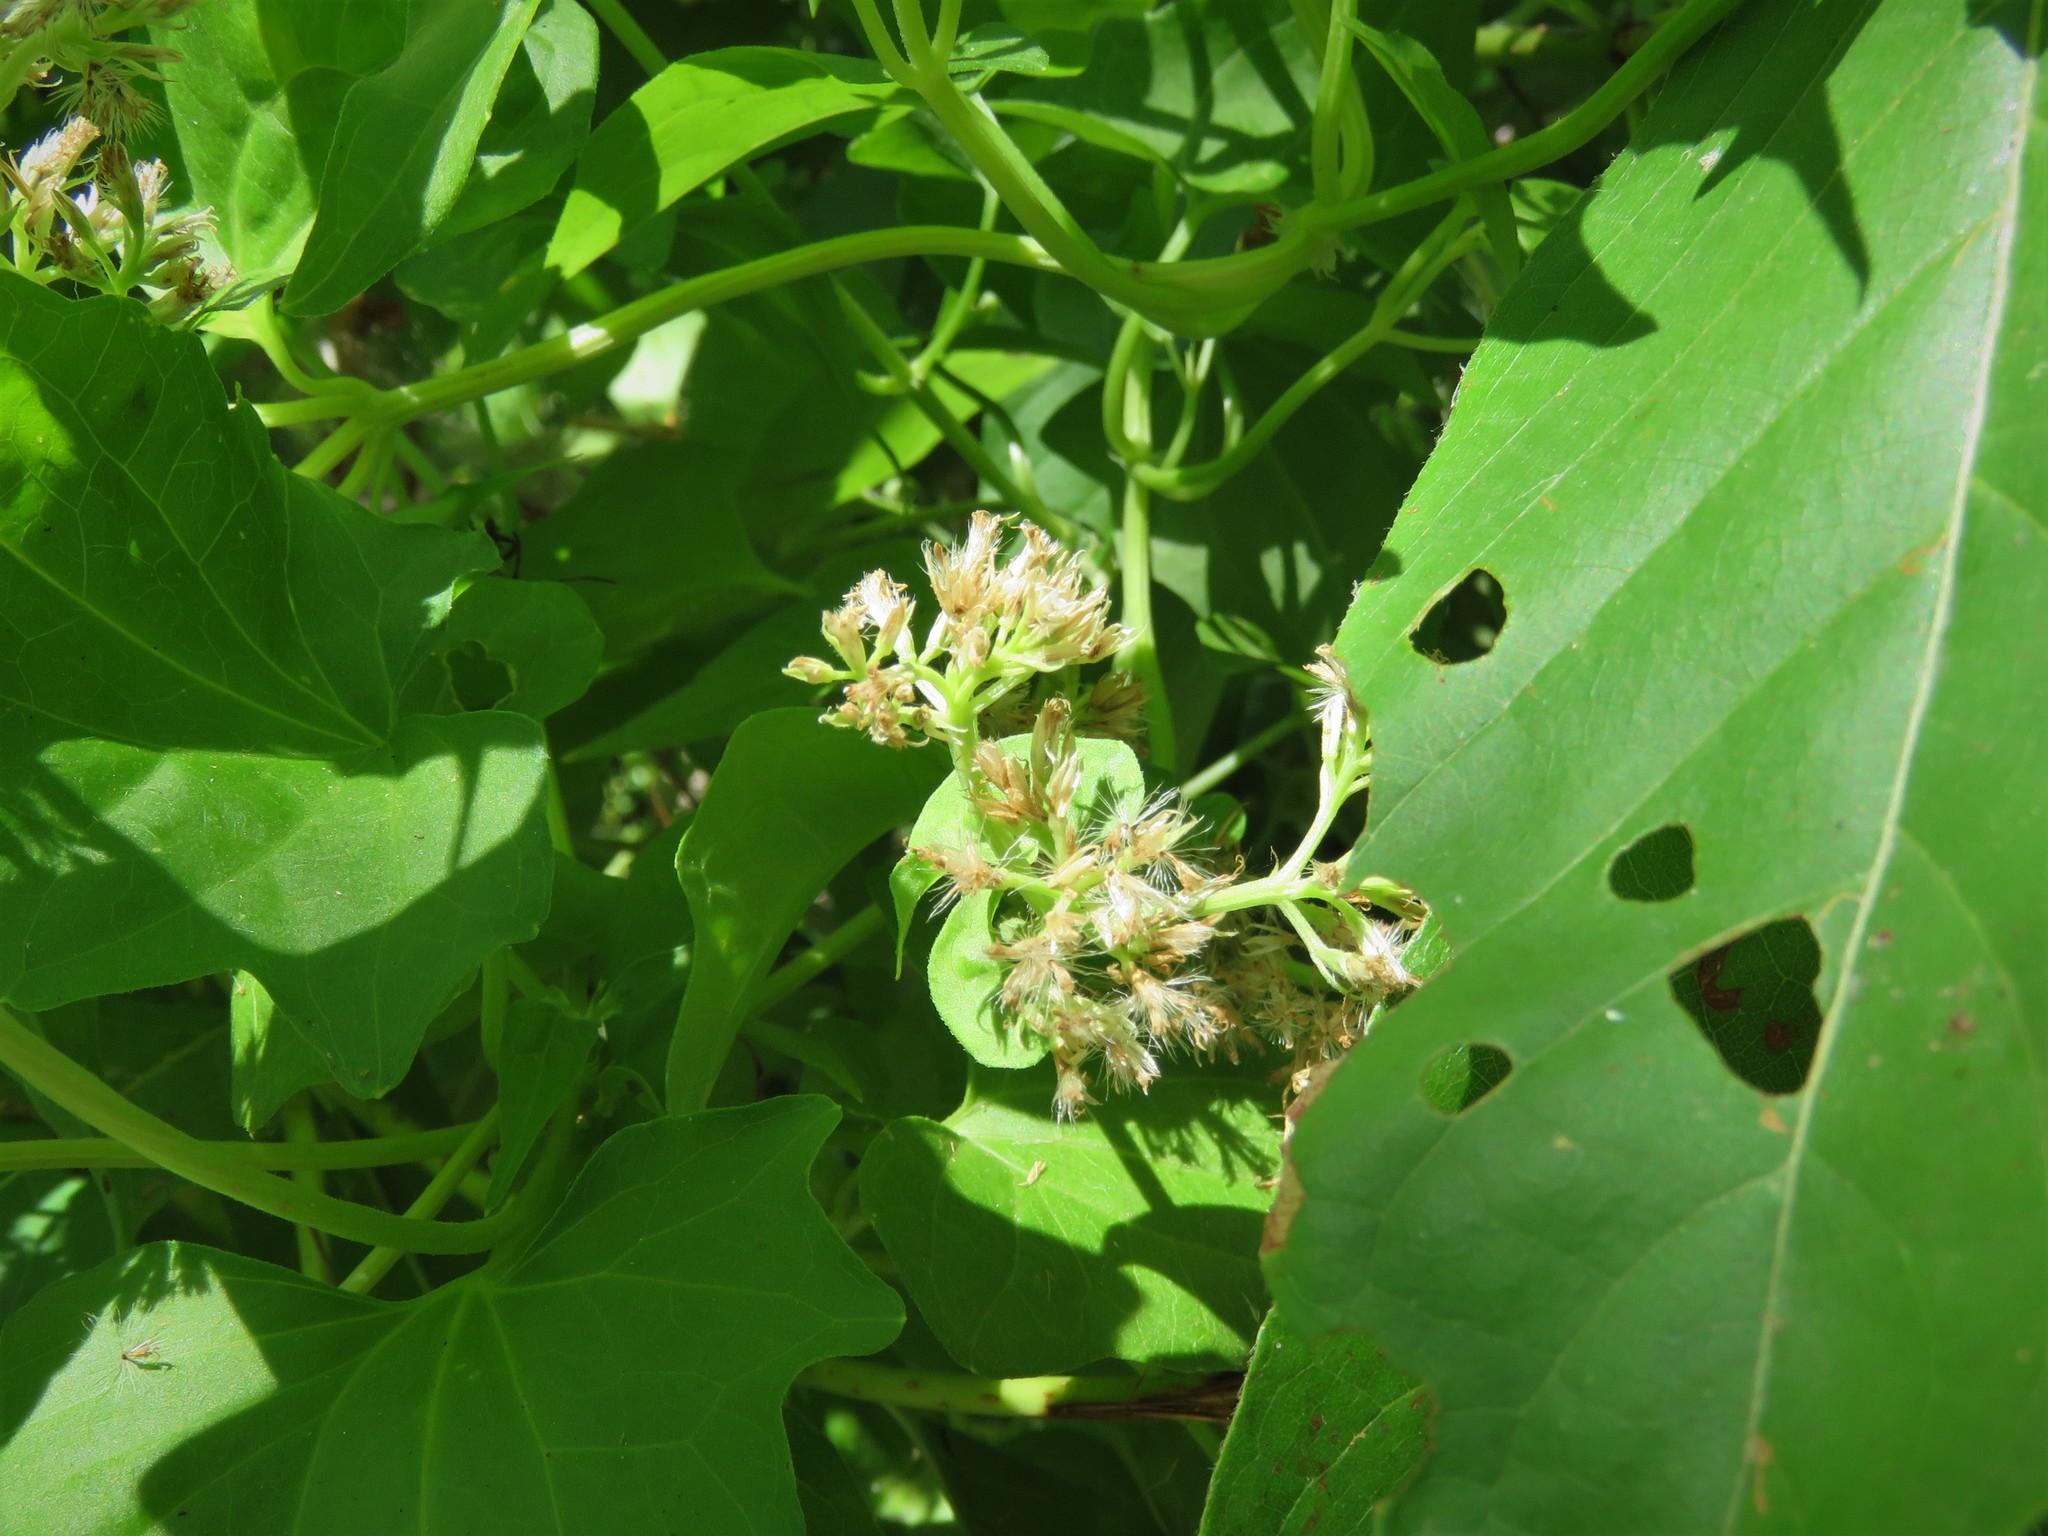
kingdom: Plantae
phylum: Tracheophyta
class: Magnoliopsida
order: Asterales
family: Asteraceae
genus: Mikania
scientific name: Mikania scandens
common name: Climbing hempvine
